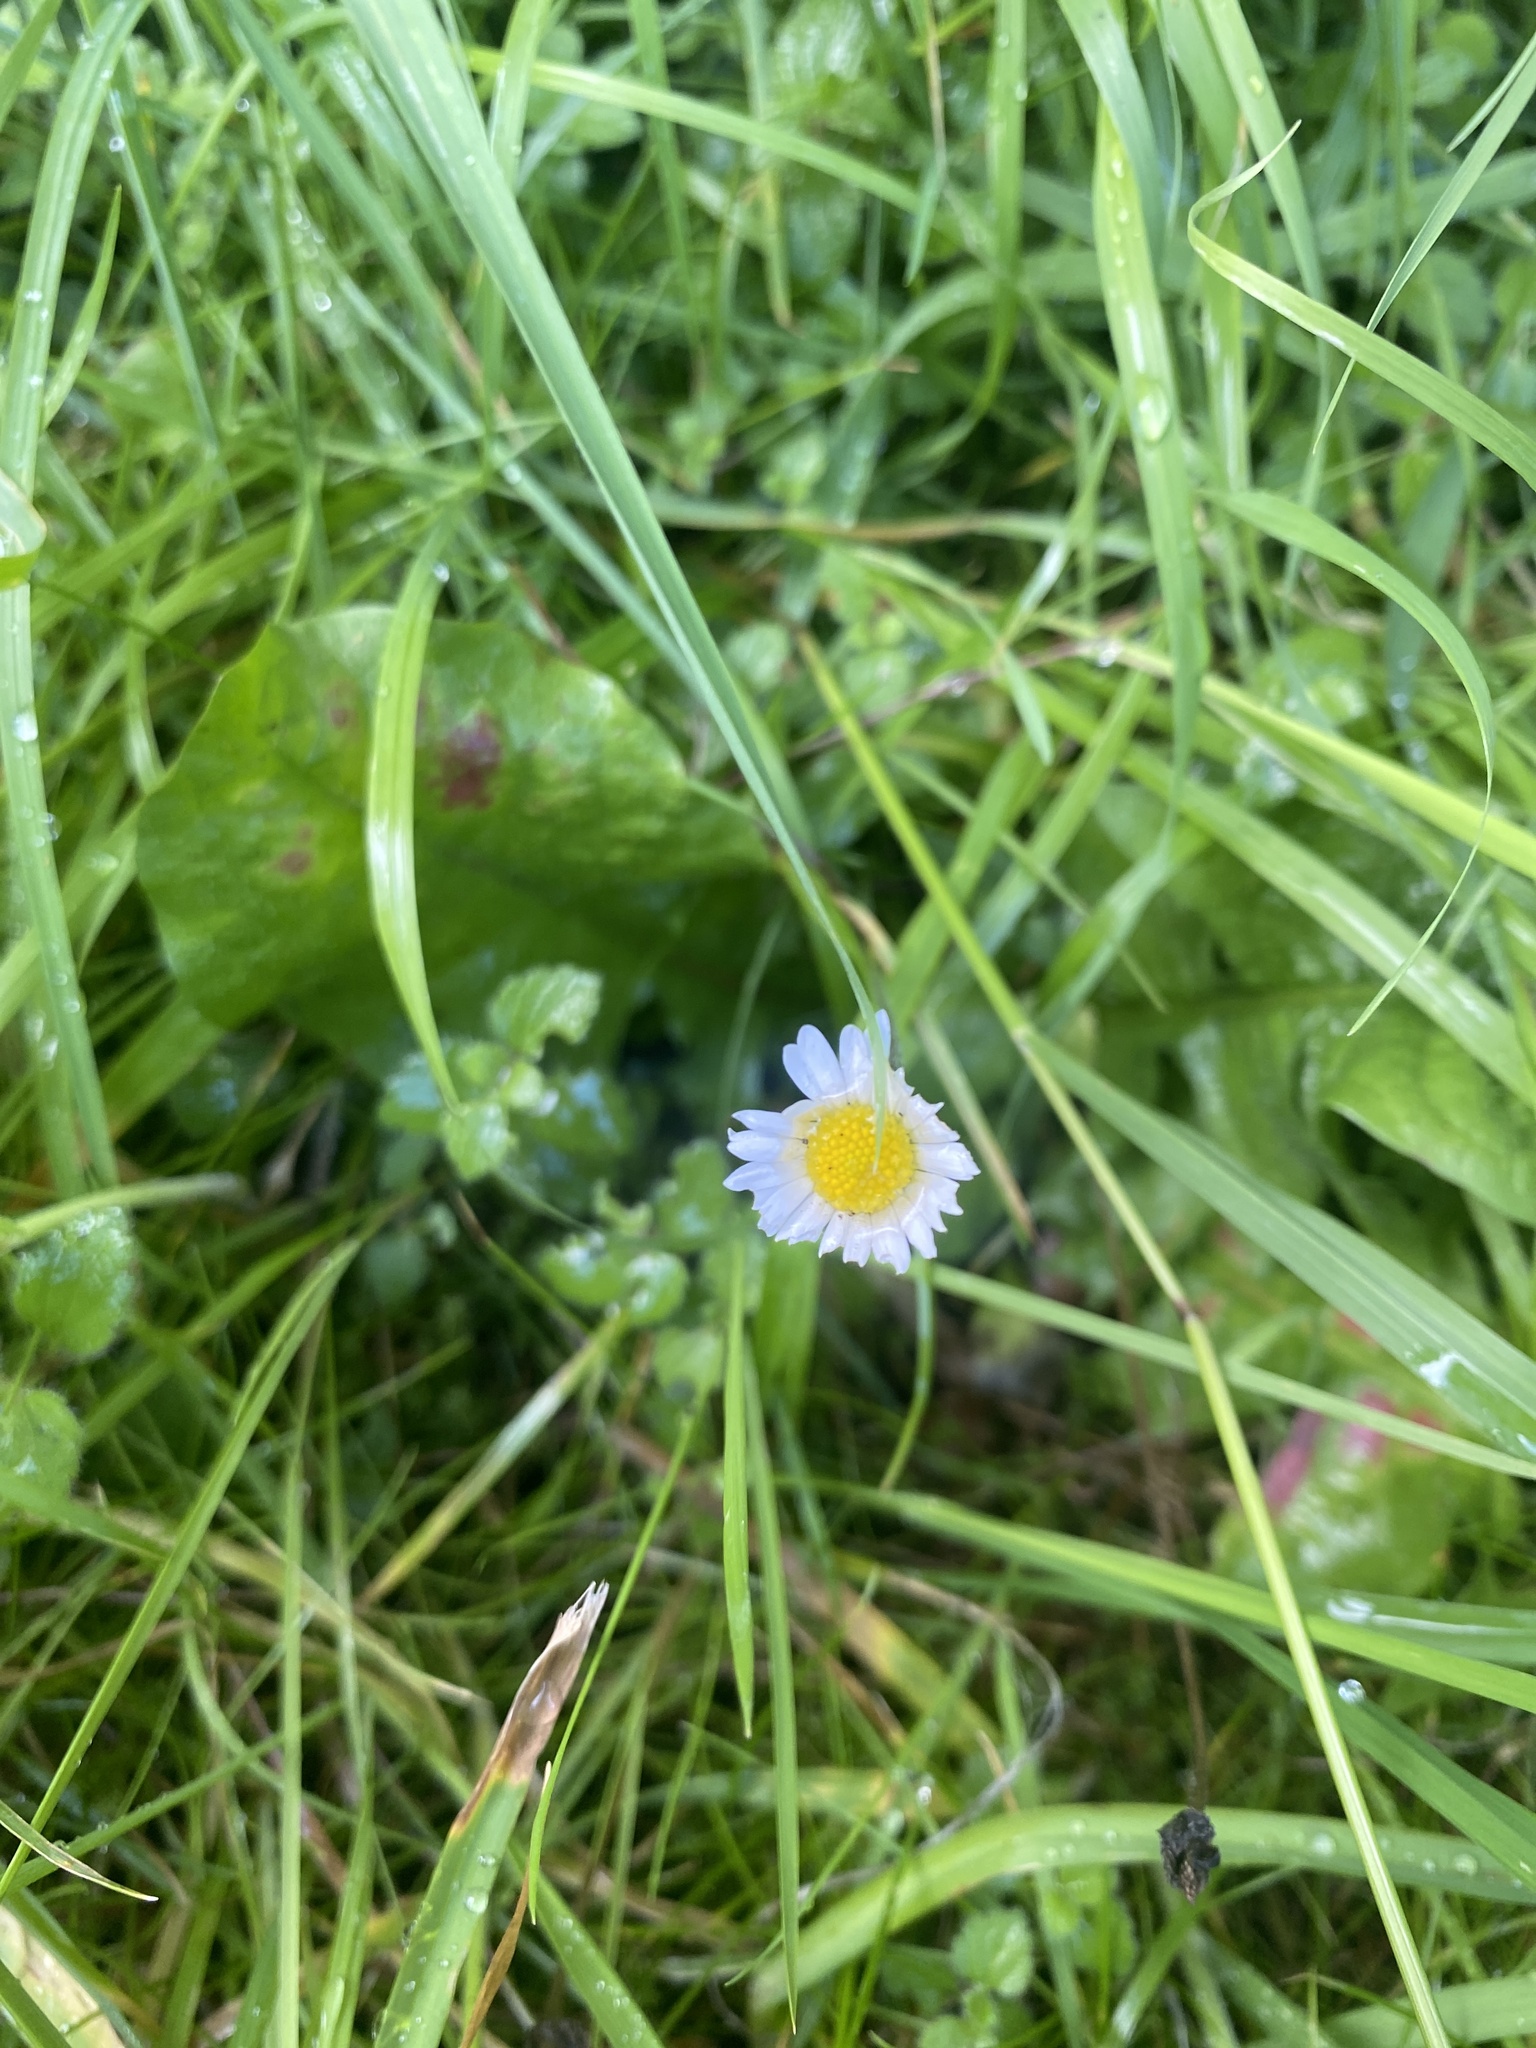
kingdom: Plantae
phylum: Tracheophyta
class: Magnoliopsida
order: Asterales
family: Asteraceae
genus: Bellis
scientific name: Bellis perennis
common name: Lawndaisy
